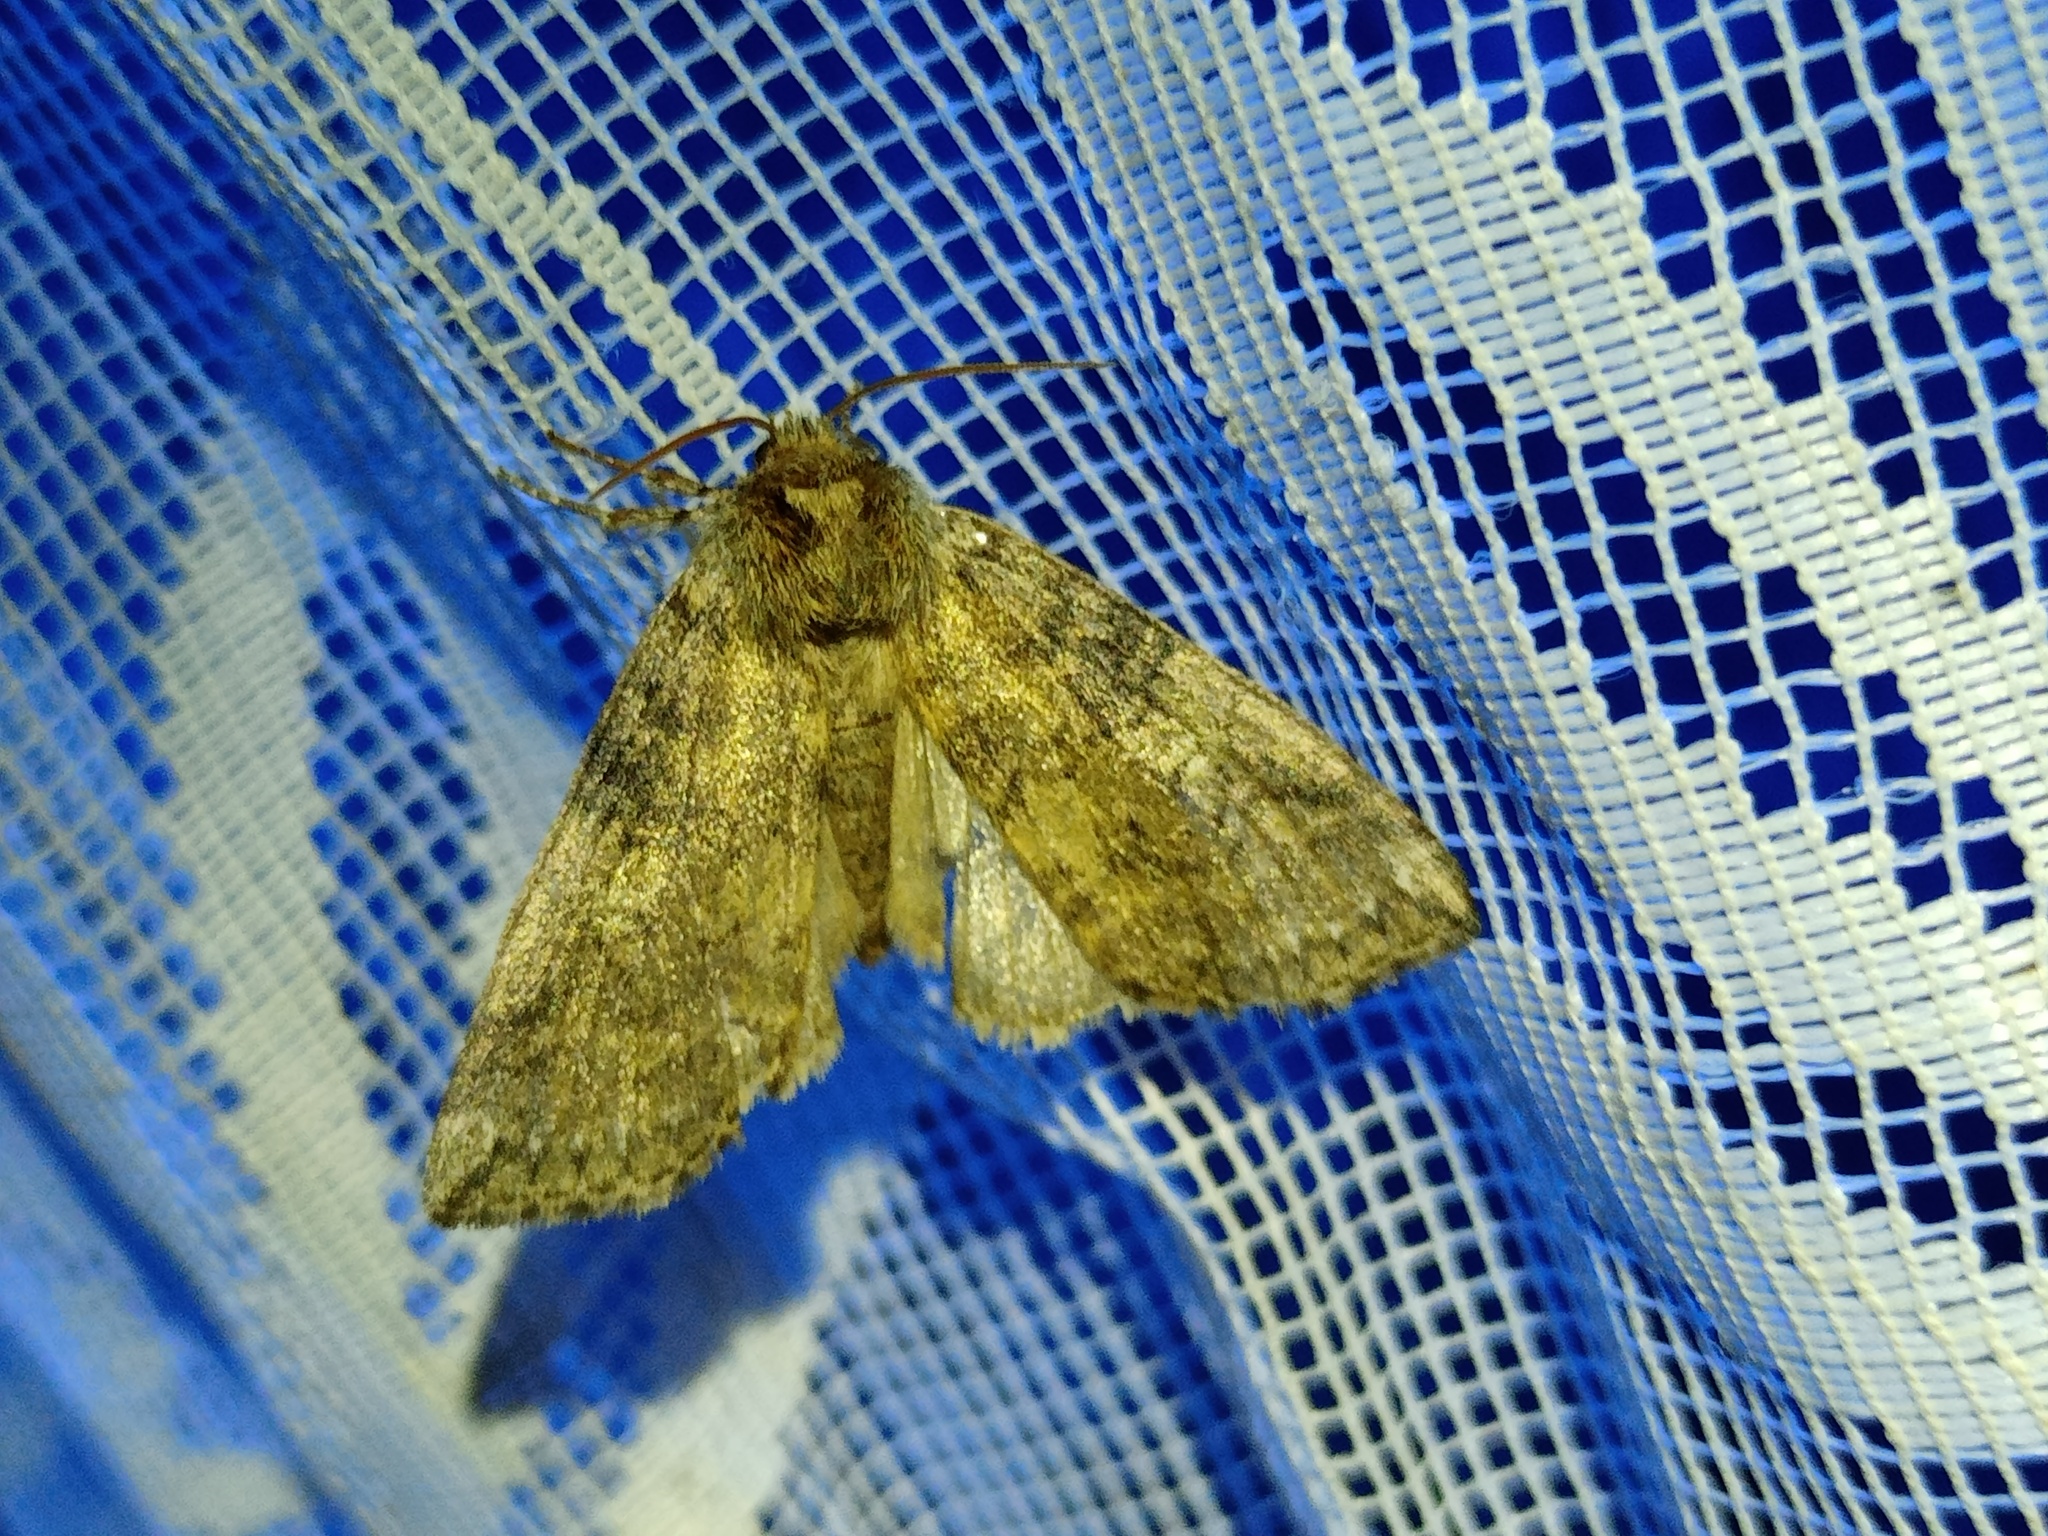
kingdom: Animalia
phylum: Arthropoda
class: Insecta
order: Lepidoptera
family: Drepanidae
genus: Tethea
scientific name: Tethea or
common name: Poplar lutestring
